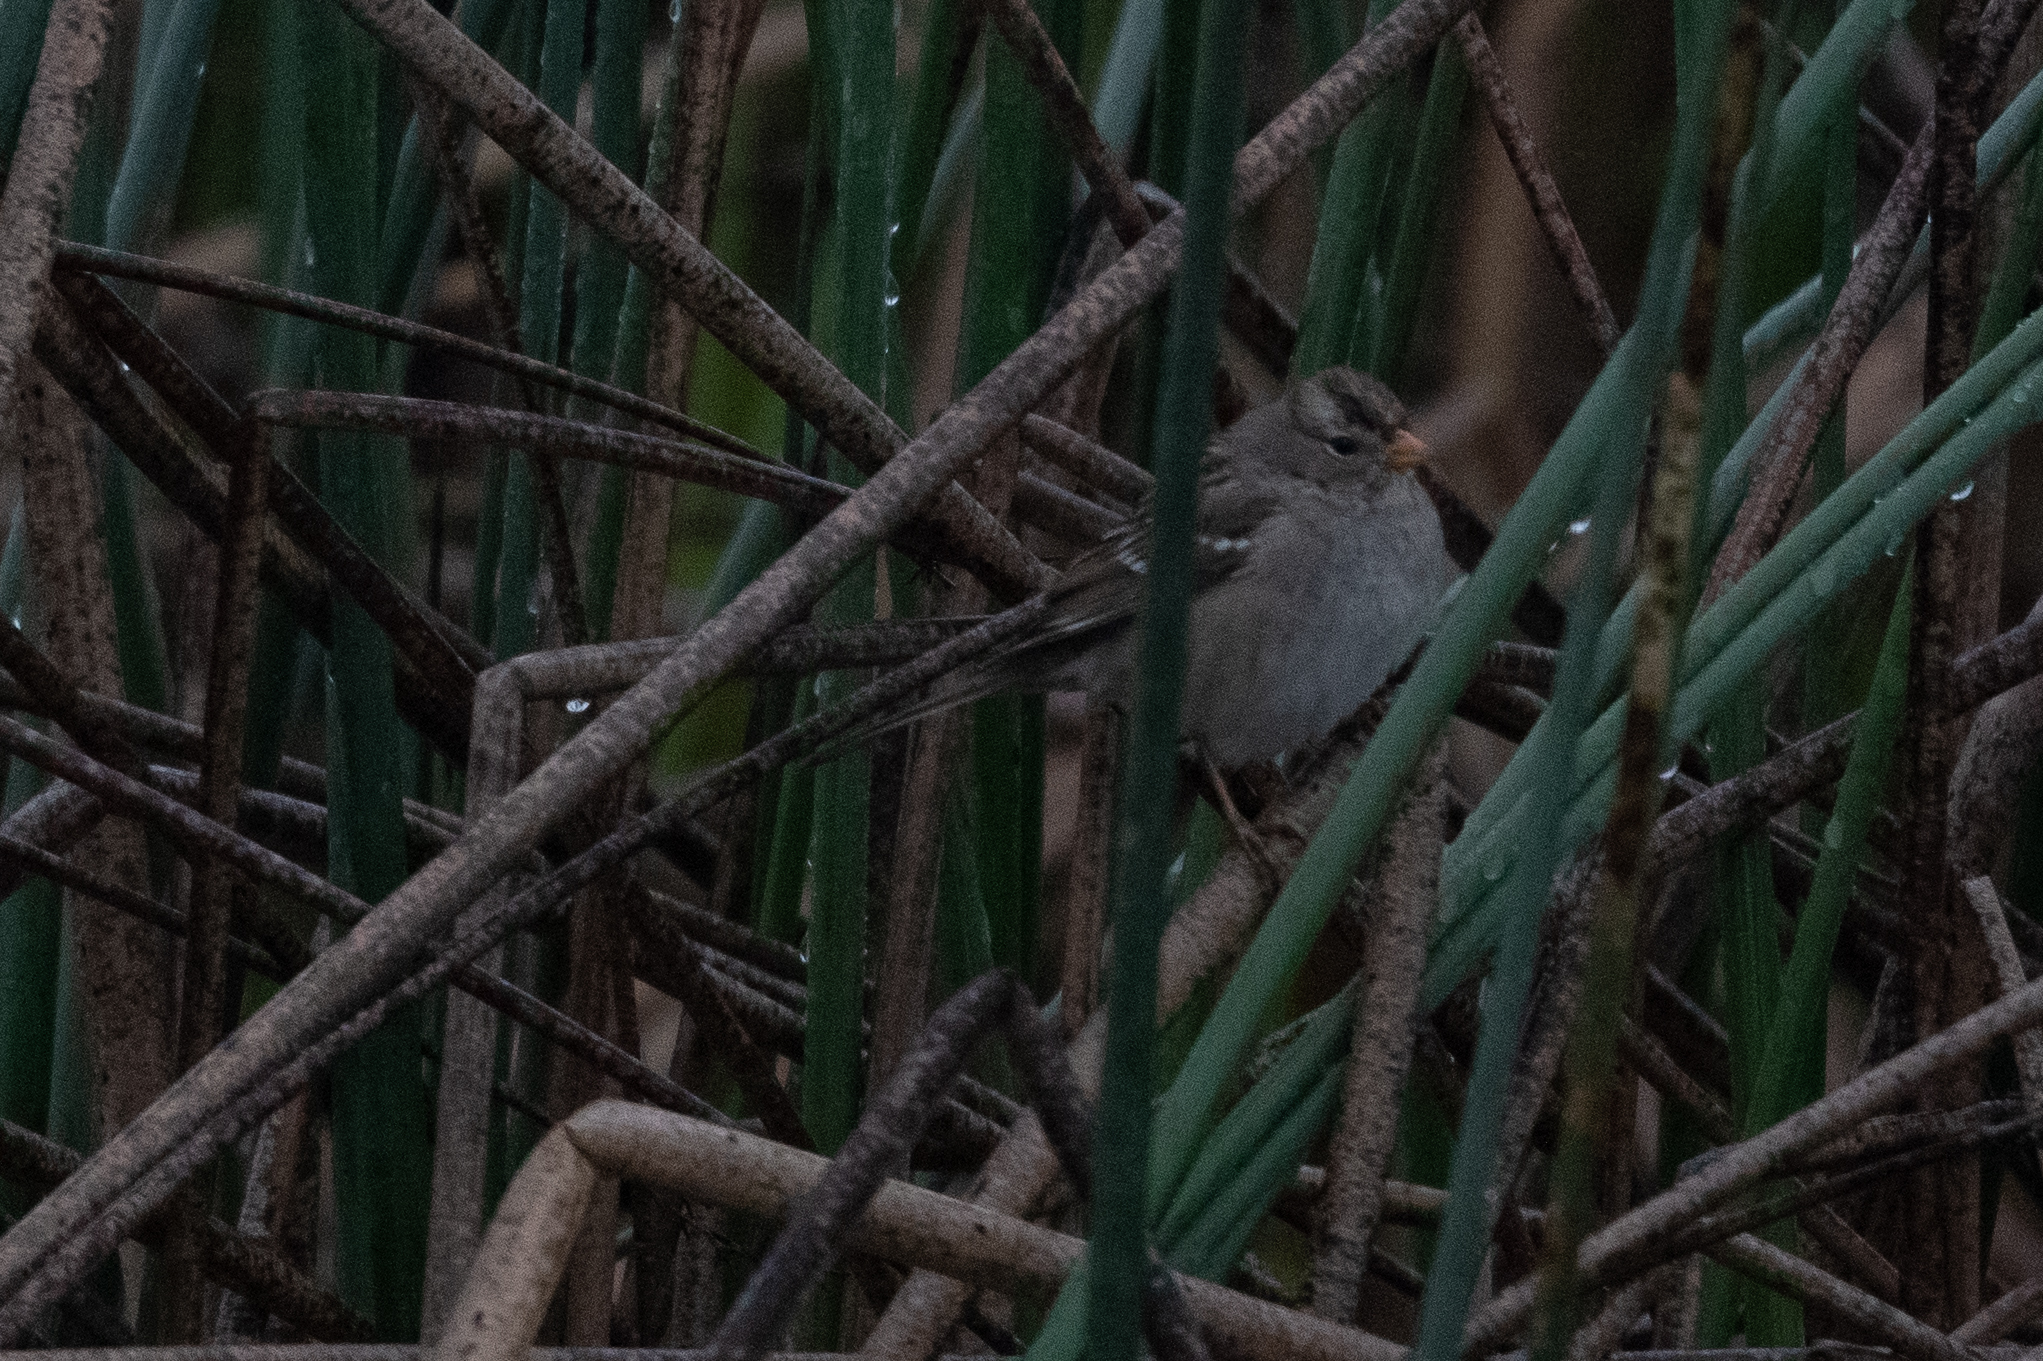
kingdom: Animalia
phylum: Chordata
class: Aves
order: Passeriformes
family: Passerellidae
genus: Zonotrichia
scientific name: Zonotrichia leucophrys
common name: White-crowned sparrow
